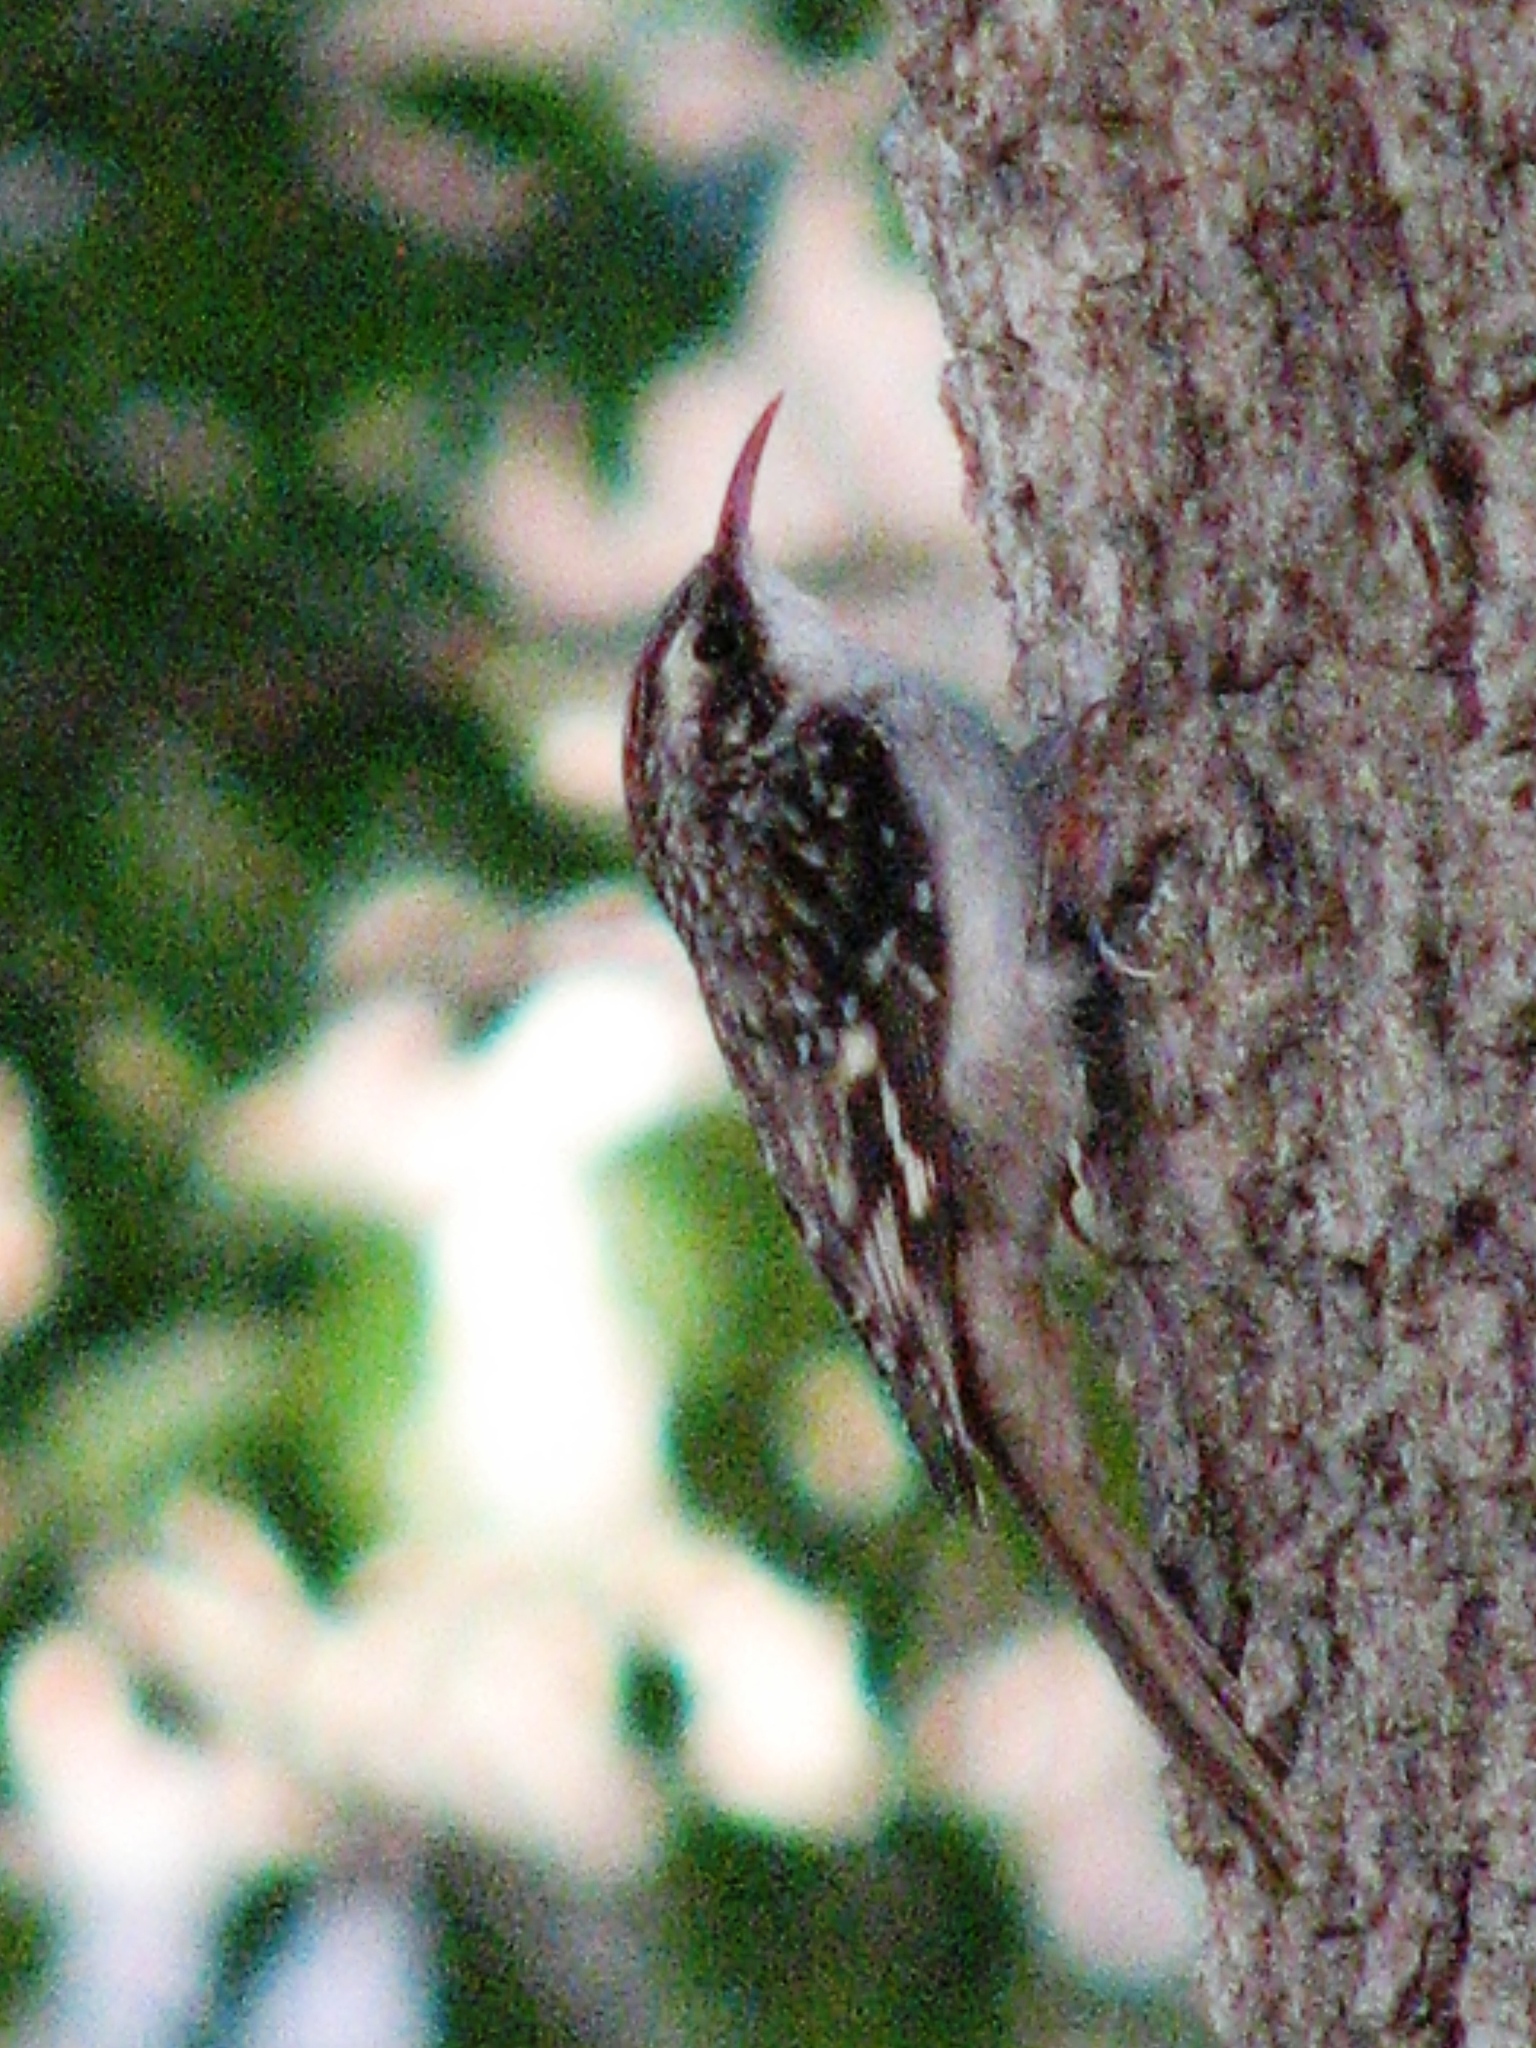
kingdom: Animalia
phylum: Chordata
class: Aves
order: Passeriformes
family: Certhiidae
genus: Certhia
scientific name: Certhia americana
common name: Brown creeper
